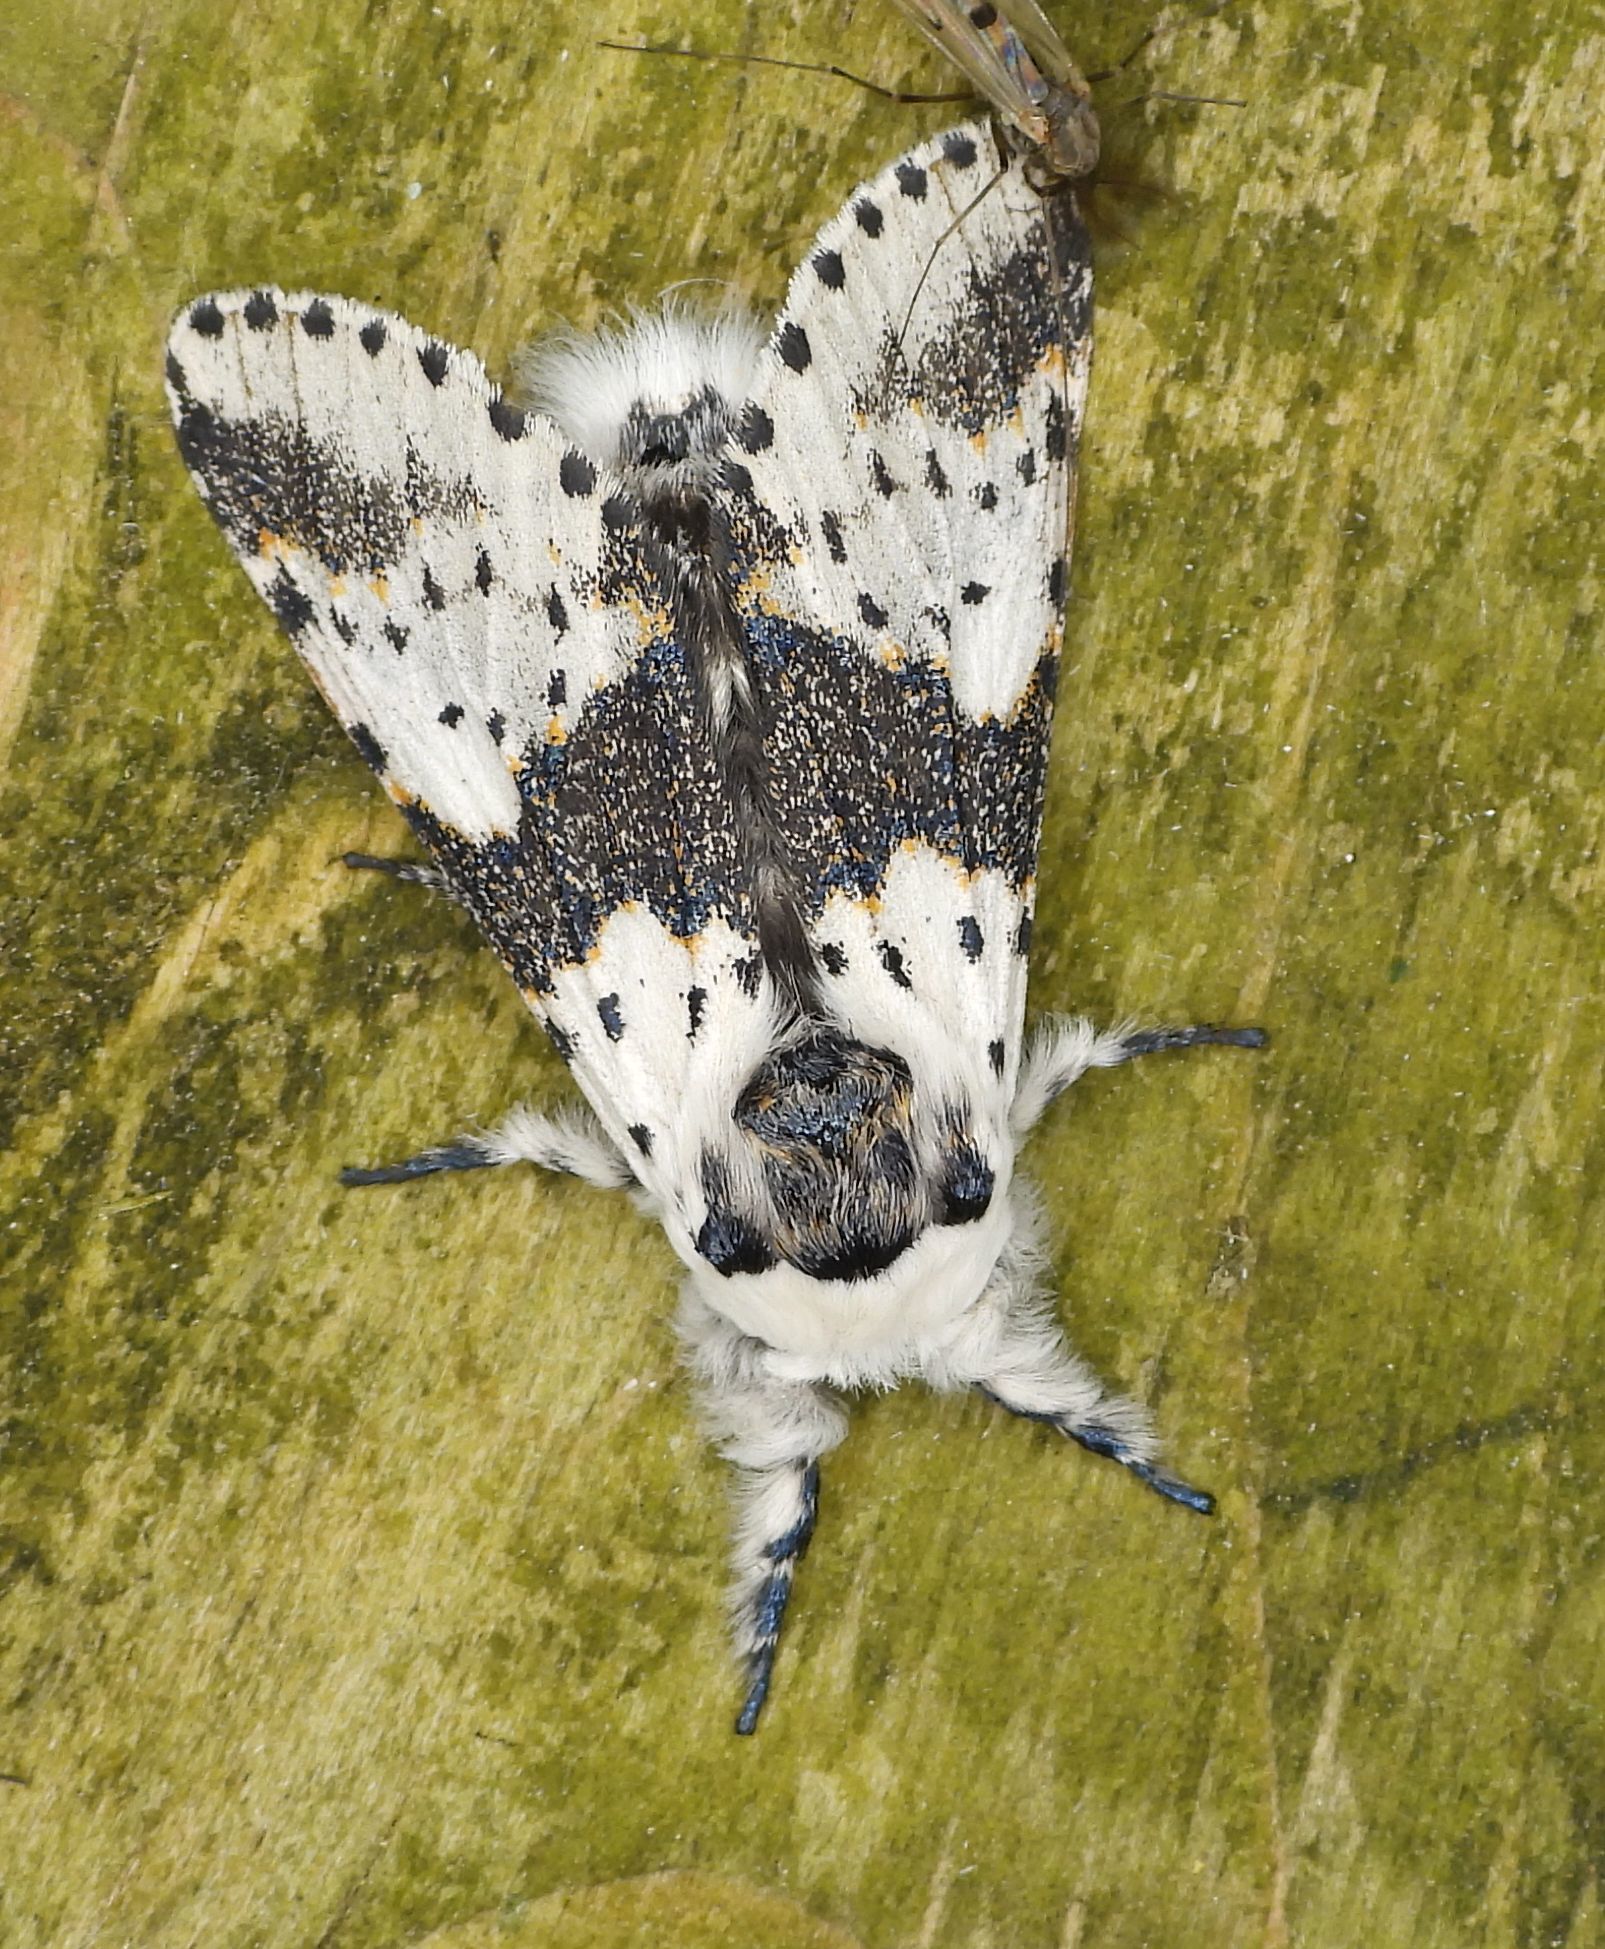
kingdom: Animalia
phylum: Arthropoda
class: Insecta
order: Lepidoptera
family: Notodontidae
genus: Furcula
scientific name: Furcula borealis
